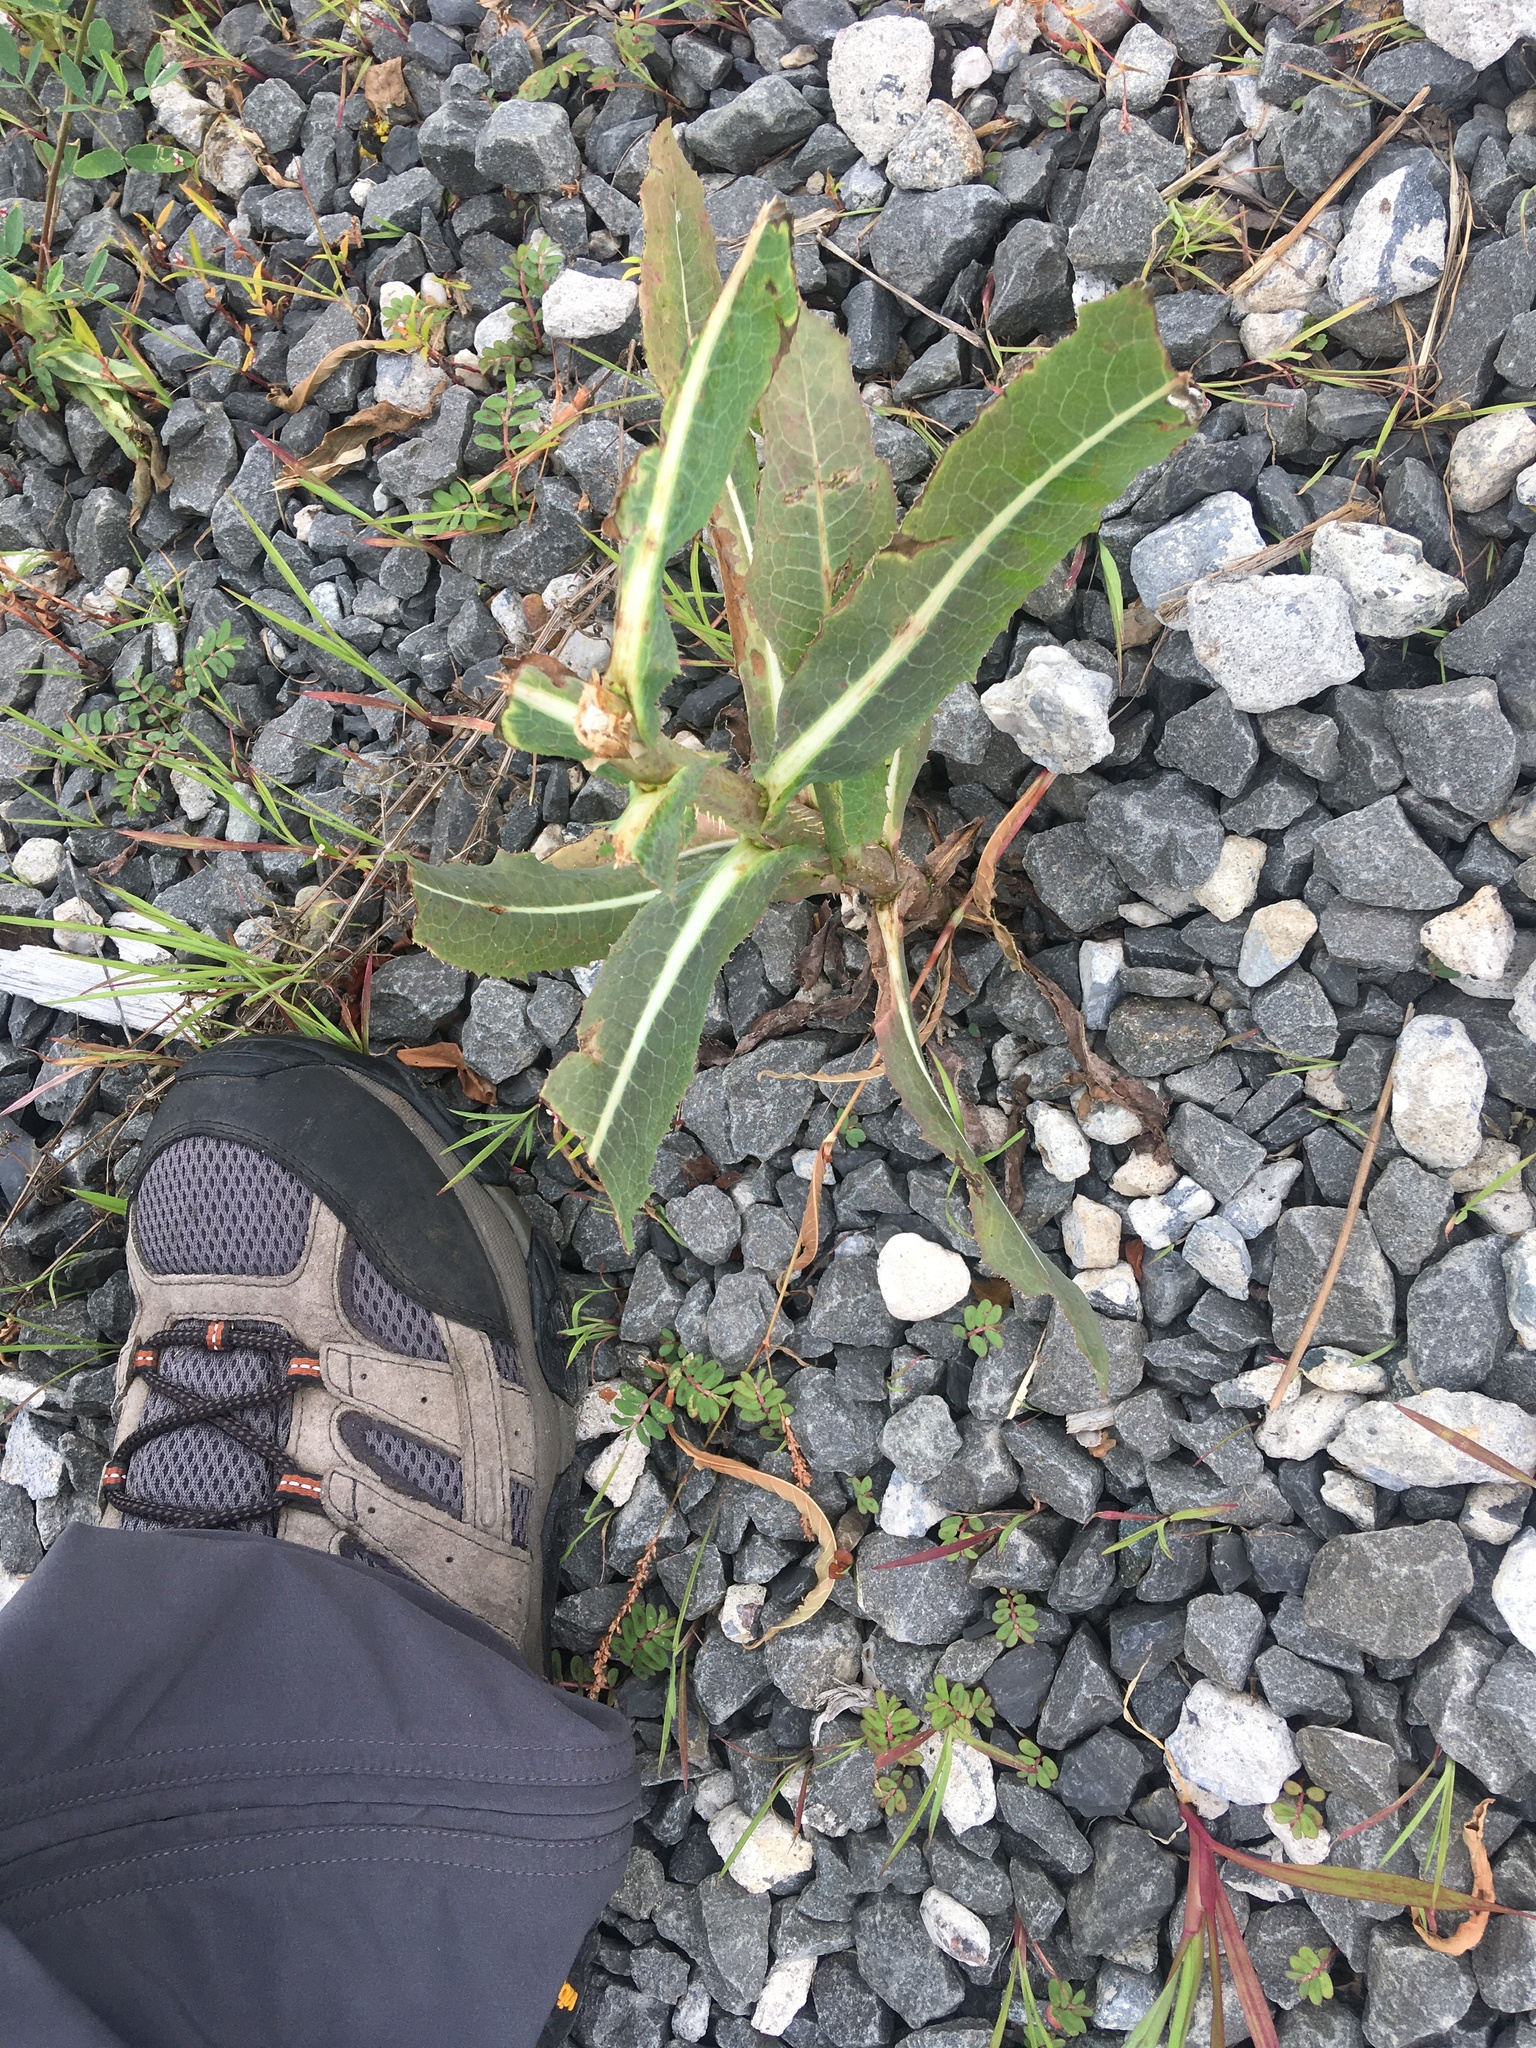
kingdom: Plantae
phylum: Tracheophyta
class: Magnoliopsida
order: Asterales
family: Asteraceae
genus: Lactuca
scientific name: Lactuca serriola
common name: Prickly lettuce
